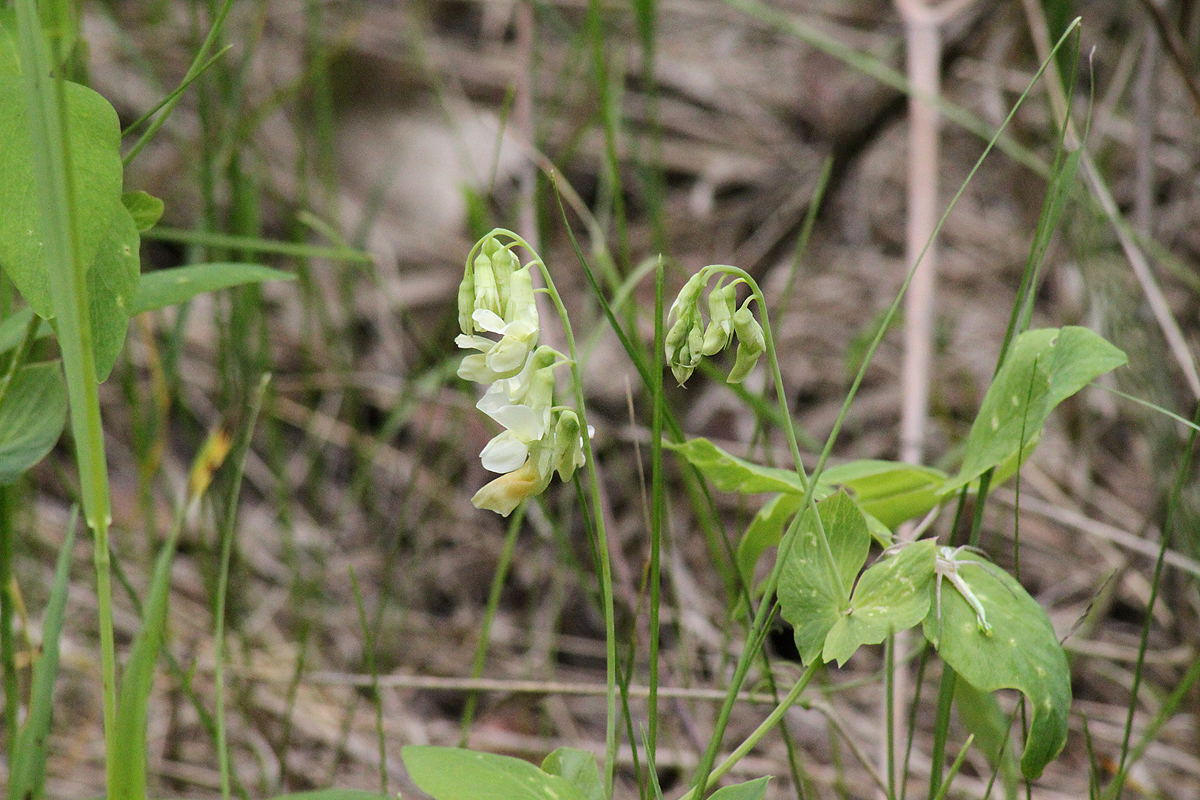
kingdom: Plantae
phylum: Tracheophyta
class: Magnoliopsida
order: Fabales
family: Fabaceae
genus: Lathyrus
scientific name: Lathyrus ochroleucus
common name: Pale vetchling
